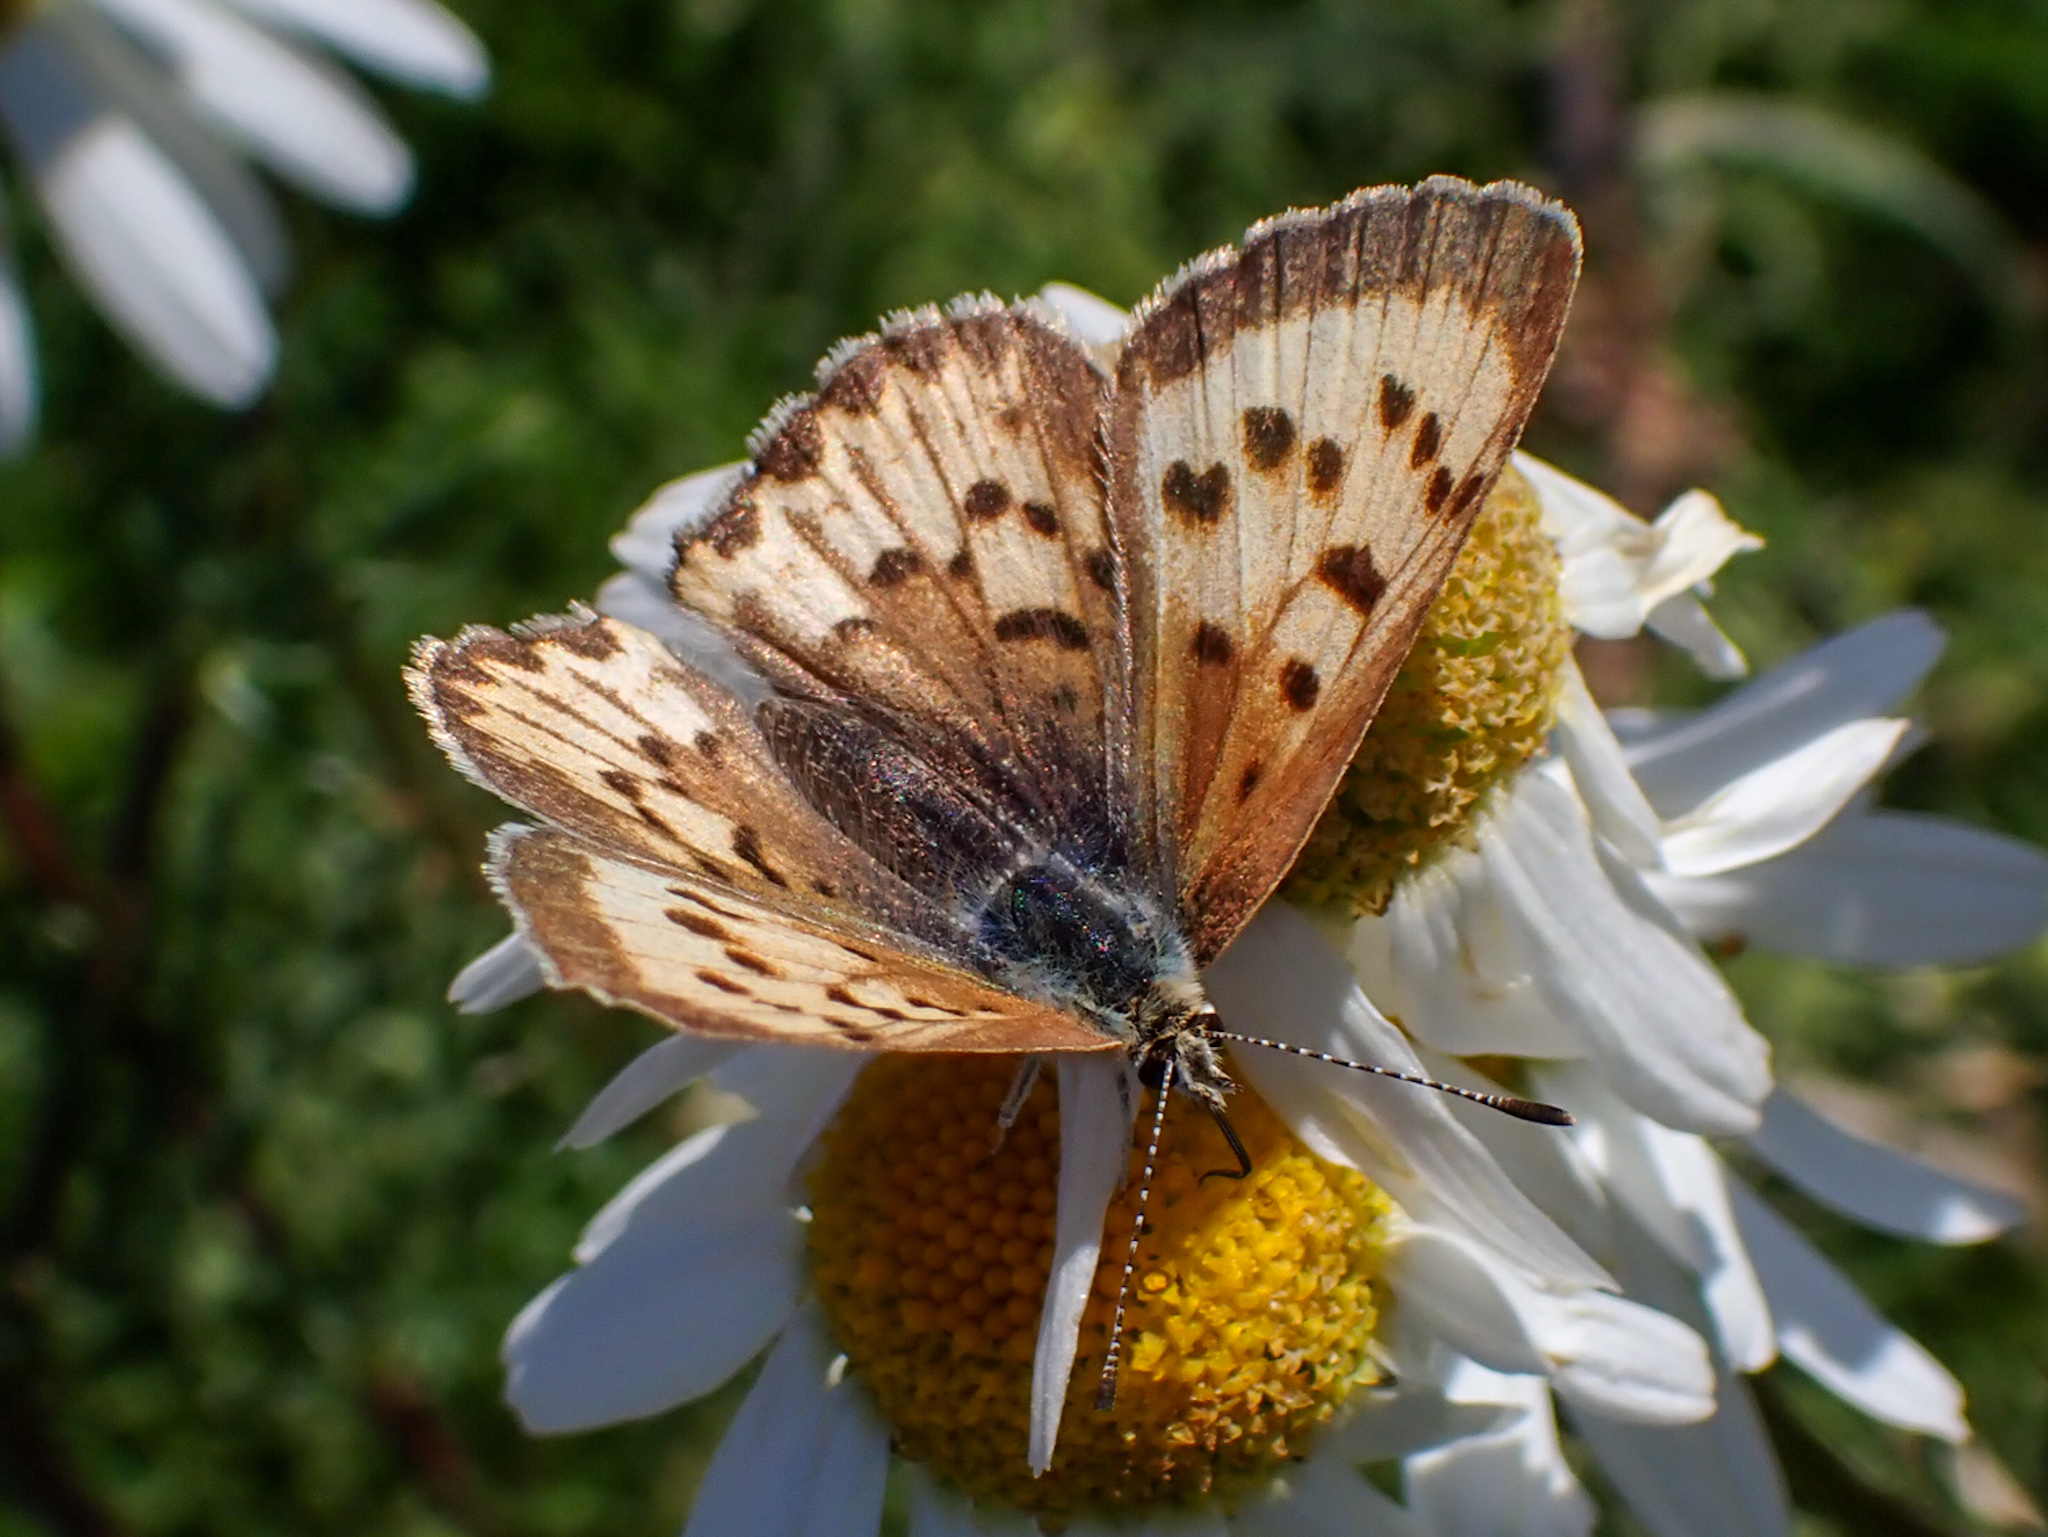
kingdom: Animalia
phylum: Arthropoda
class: Insecta
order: Lepidoptera
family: Lycaenidae
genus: Tharsalea
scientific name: Tharsalea helloides
